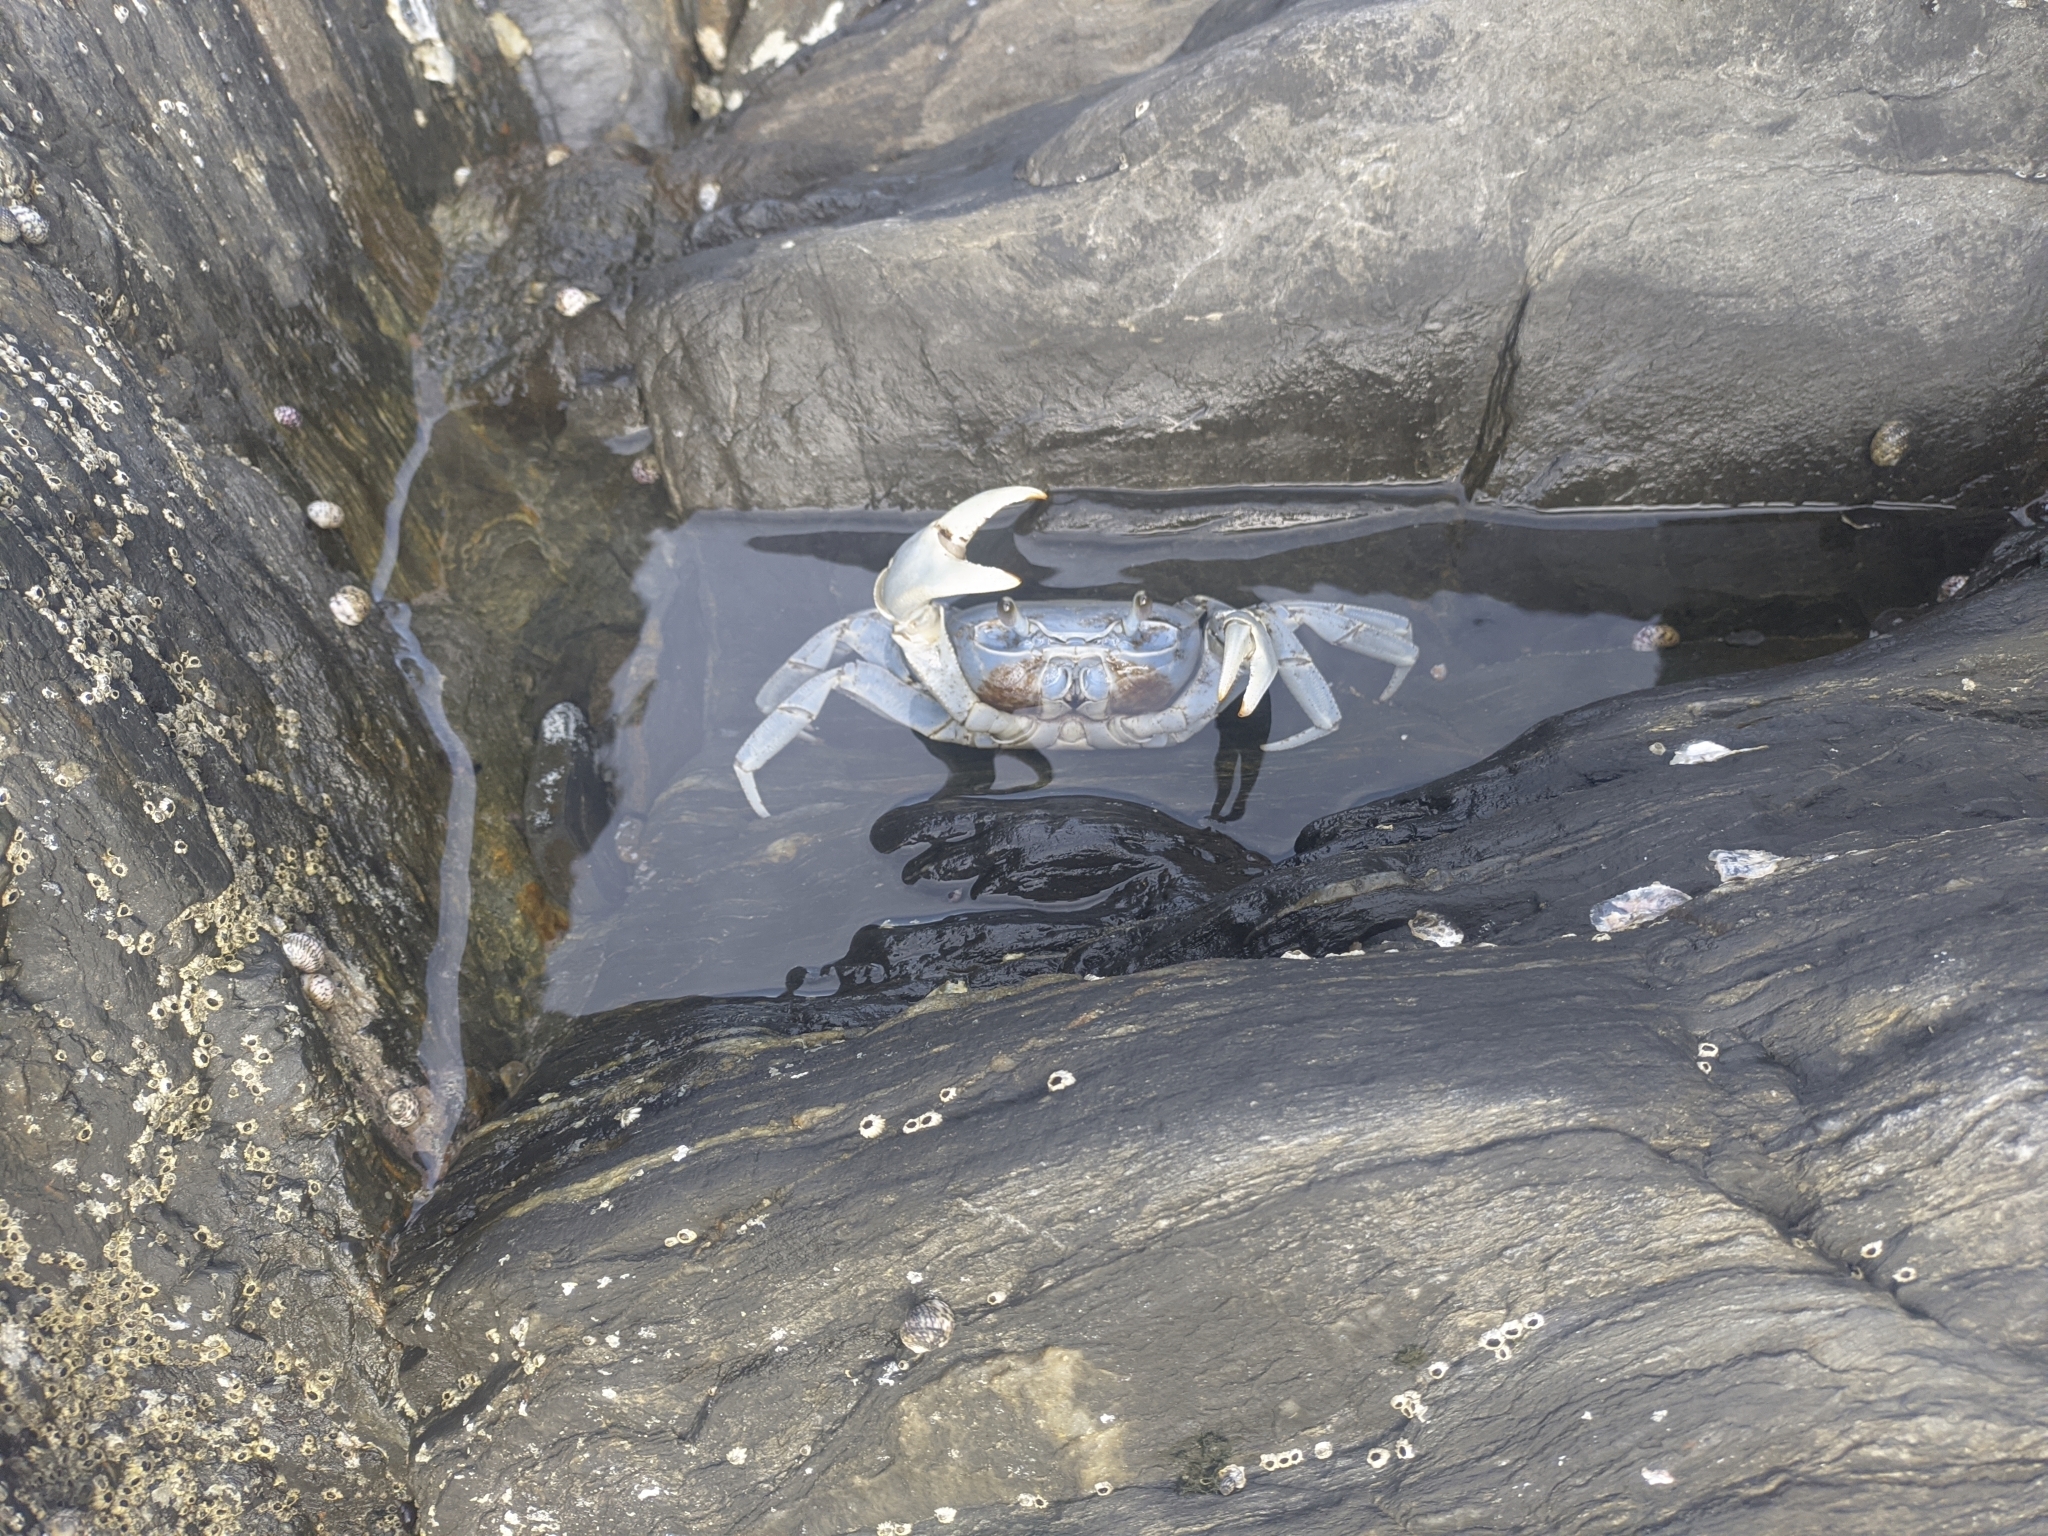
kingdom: Animalia
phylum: Arthropoda
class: Malacostraca
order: Decapoda
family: Gecarcinidae
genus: Cardisoma
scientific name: Cardisoma guanhumi
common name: Great land crab
